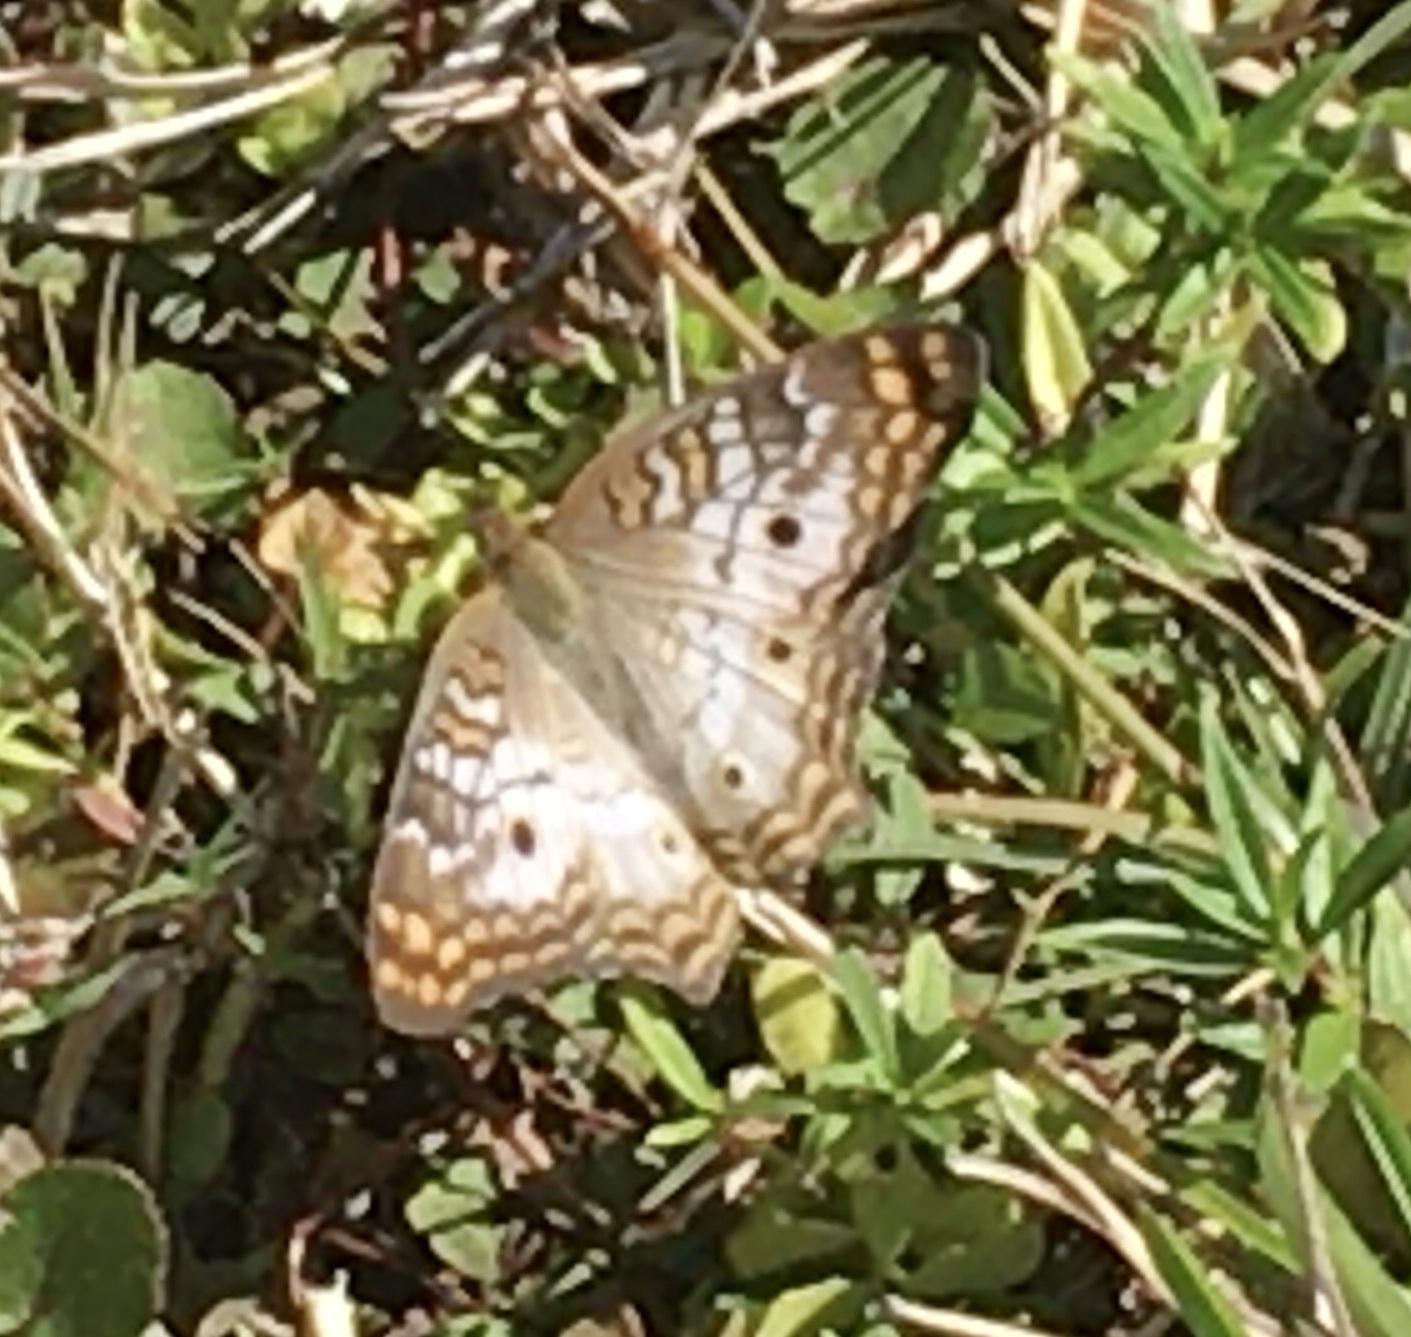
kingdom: Animalia
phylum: Arthropoda
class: Insecta
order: Lepidoptera
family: Nymphalidae
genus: Anartia
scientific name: Anartia jatrophae
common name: White peacock
